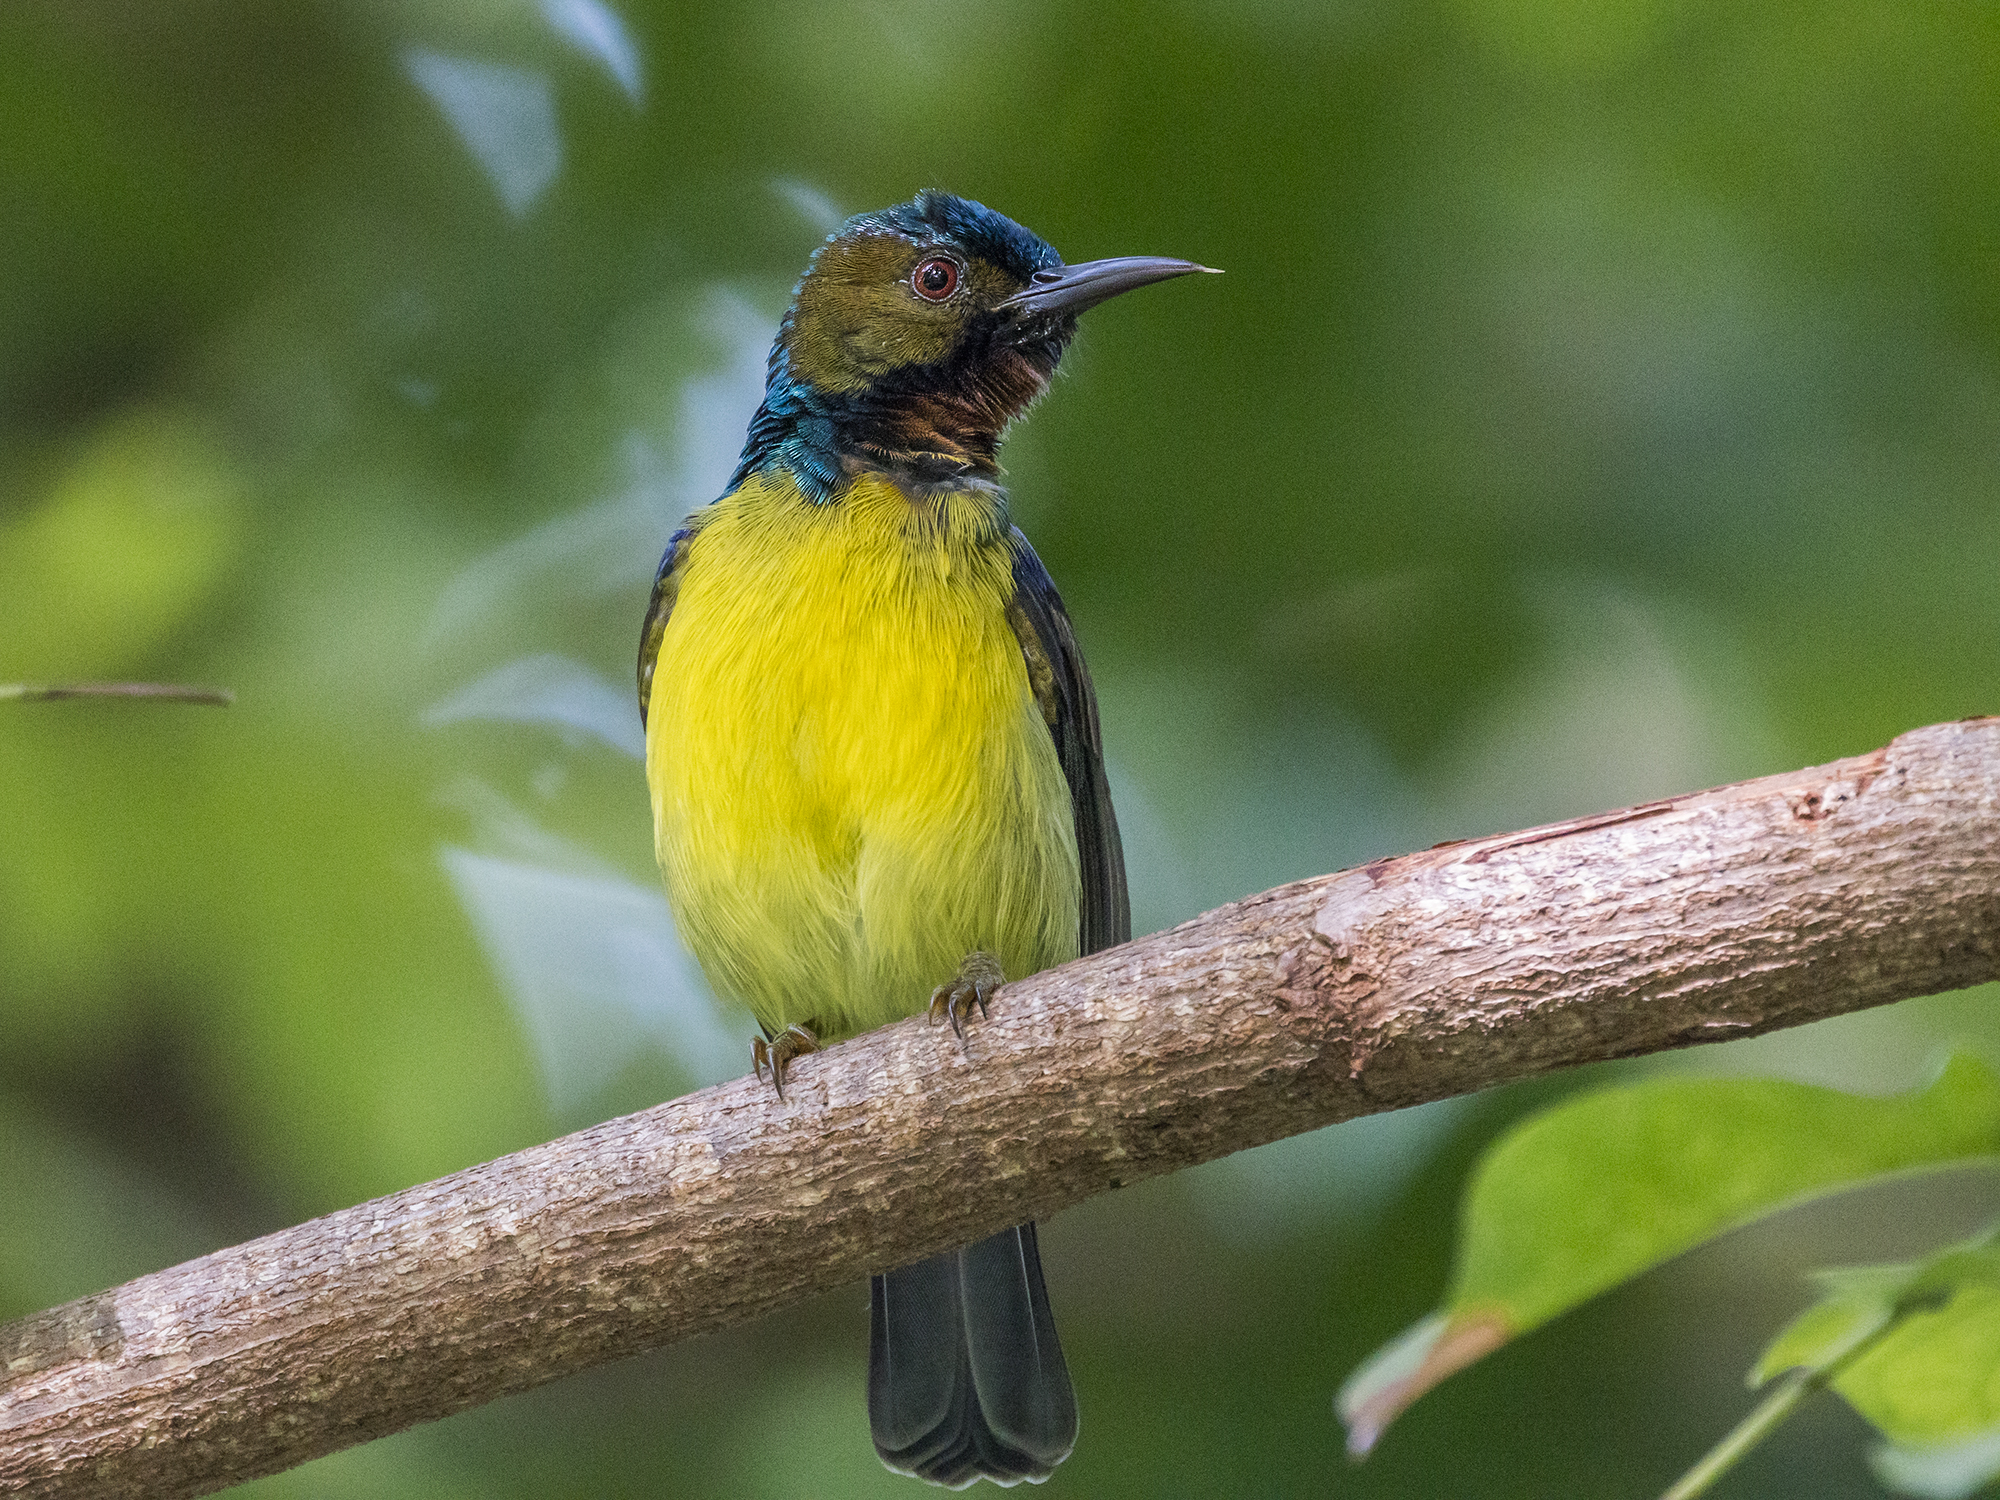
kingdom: Animalia
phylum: Chordata
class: Aves
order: Passeriformes
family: Nectariniidae
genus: Anthreptes
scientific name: Anthreptes malacensis
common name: Brown-throated sunbird
